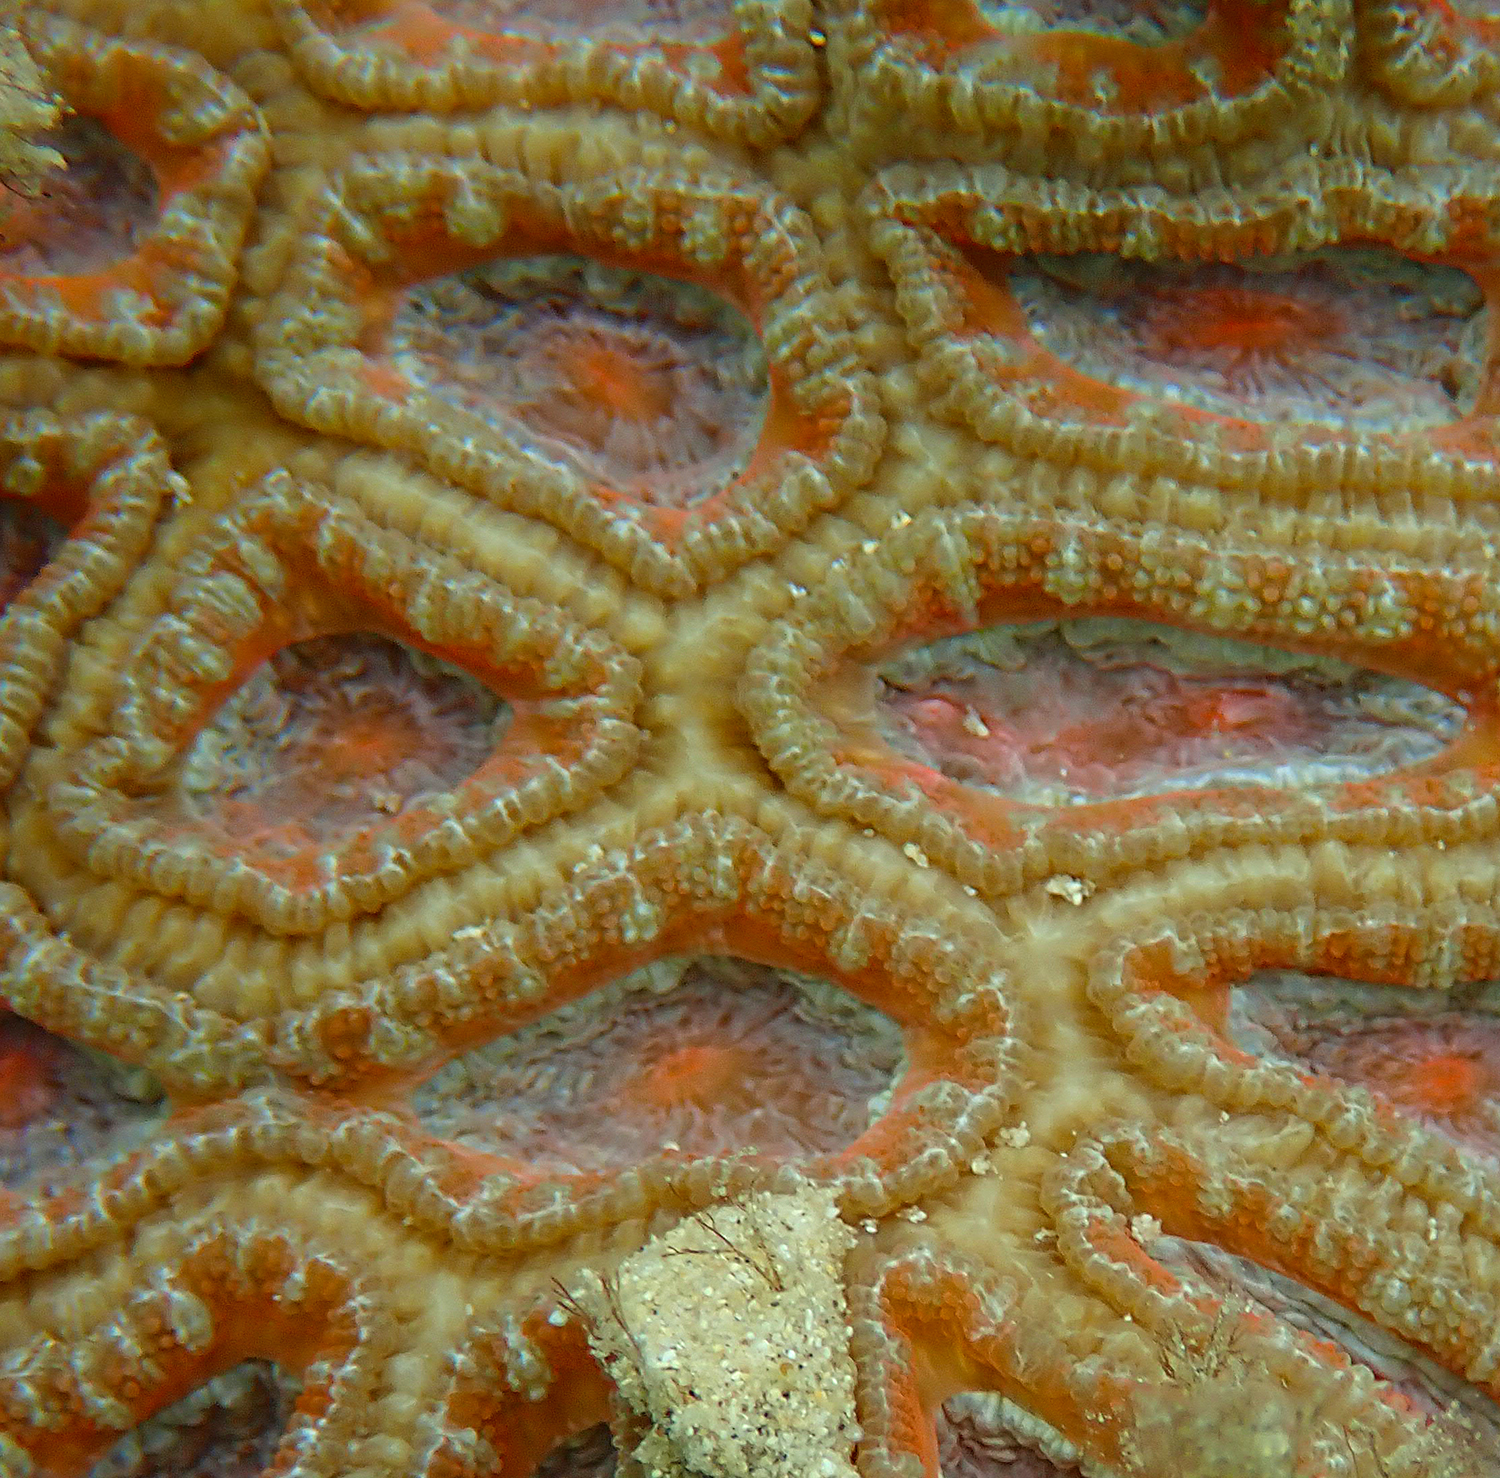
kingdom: Animalia
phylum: Cnidaria
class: Anthozoa
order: Scleractinia
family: Lobophylliidae
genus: Micromussa
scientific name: Micromussa lordhowensis
